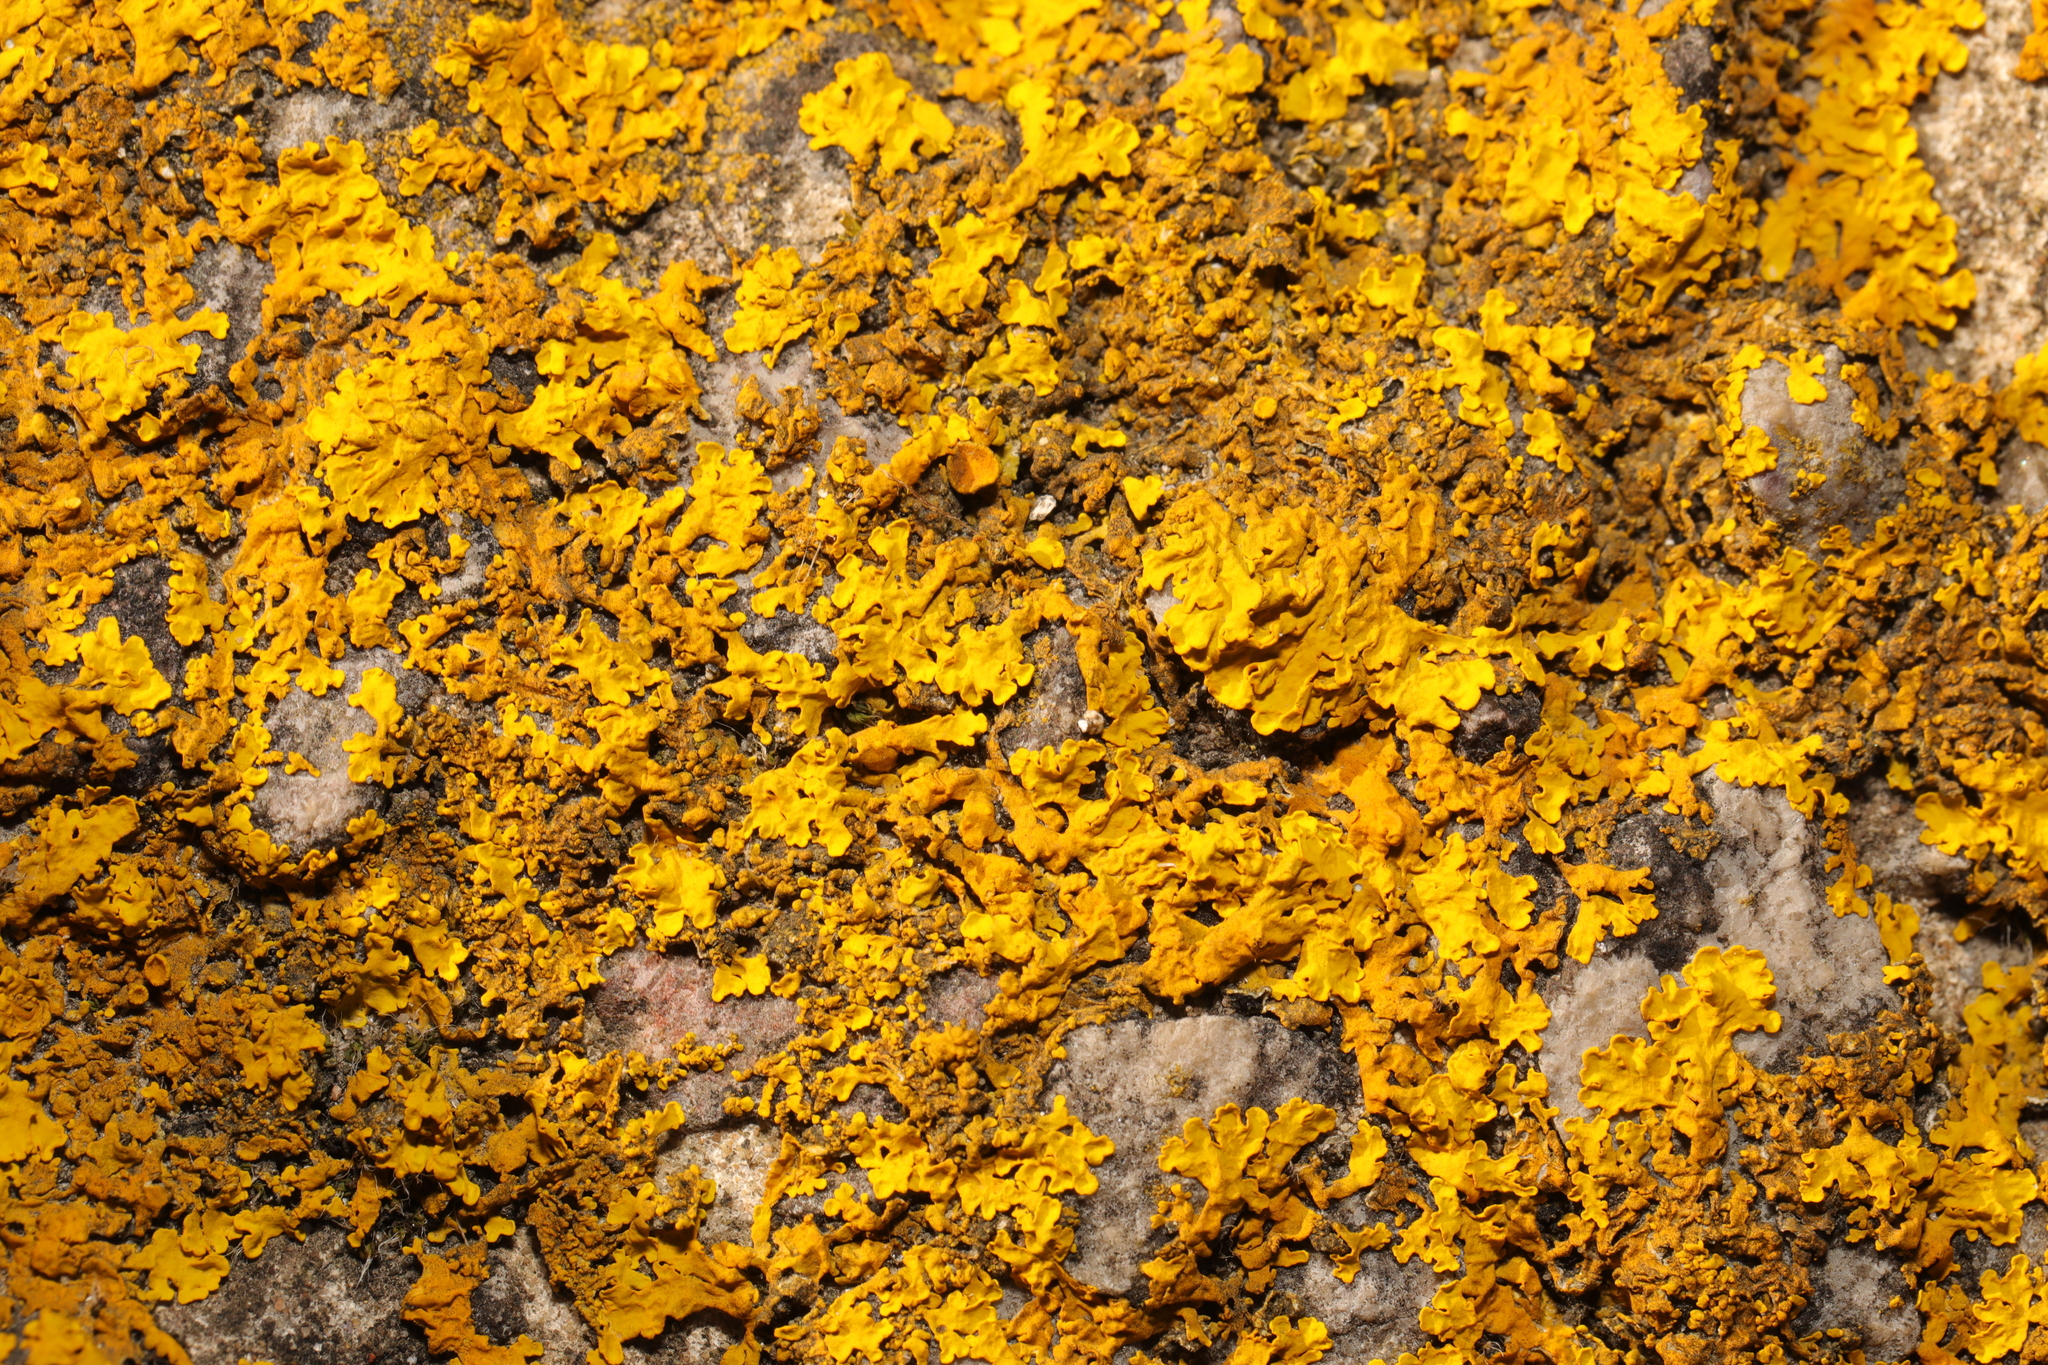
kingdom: Fungi
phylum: Ascomycota
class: Lecanoromycetes
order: Teloschistales
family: Teloschistaceae
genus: Xanthoria
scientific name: Xanthoria calcicola
